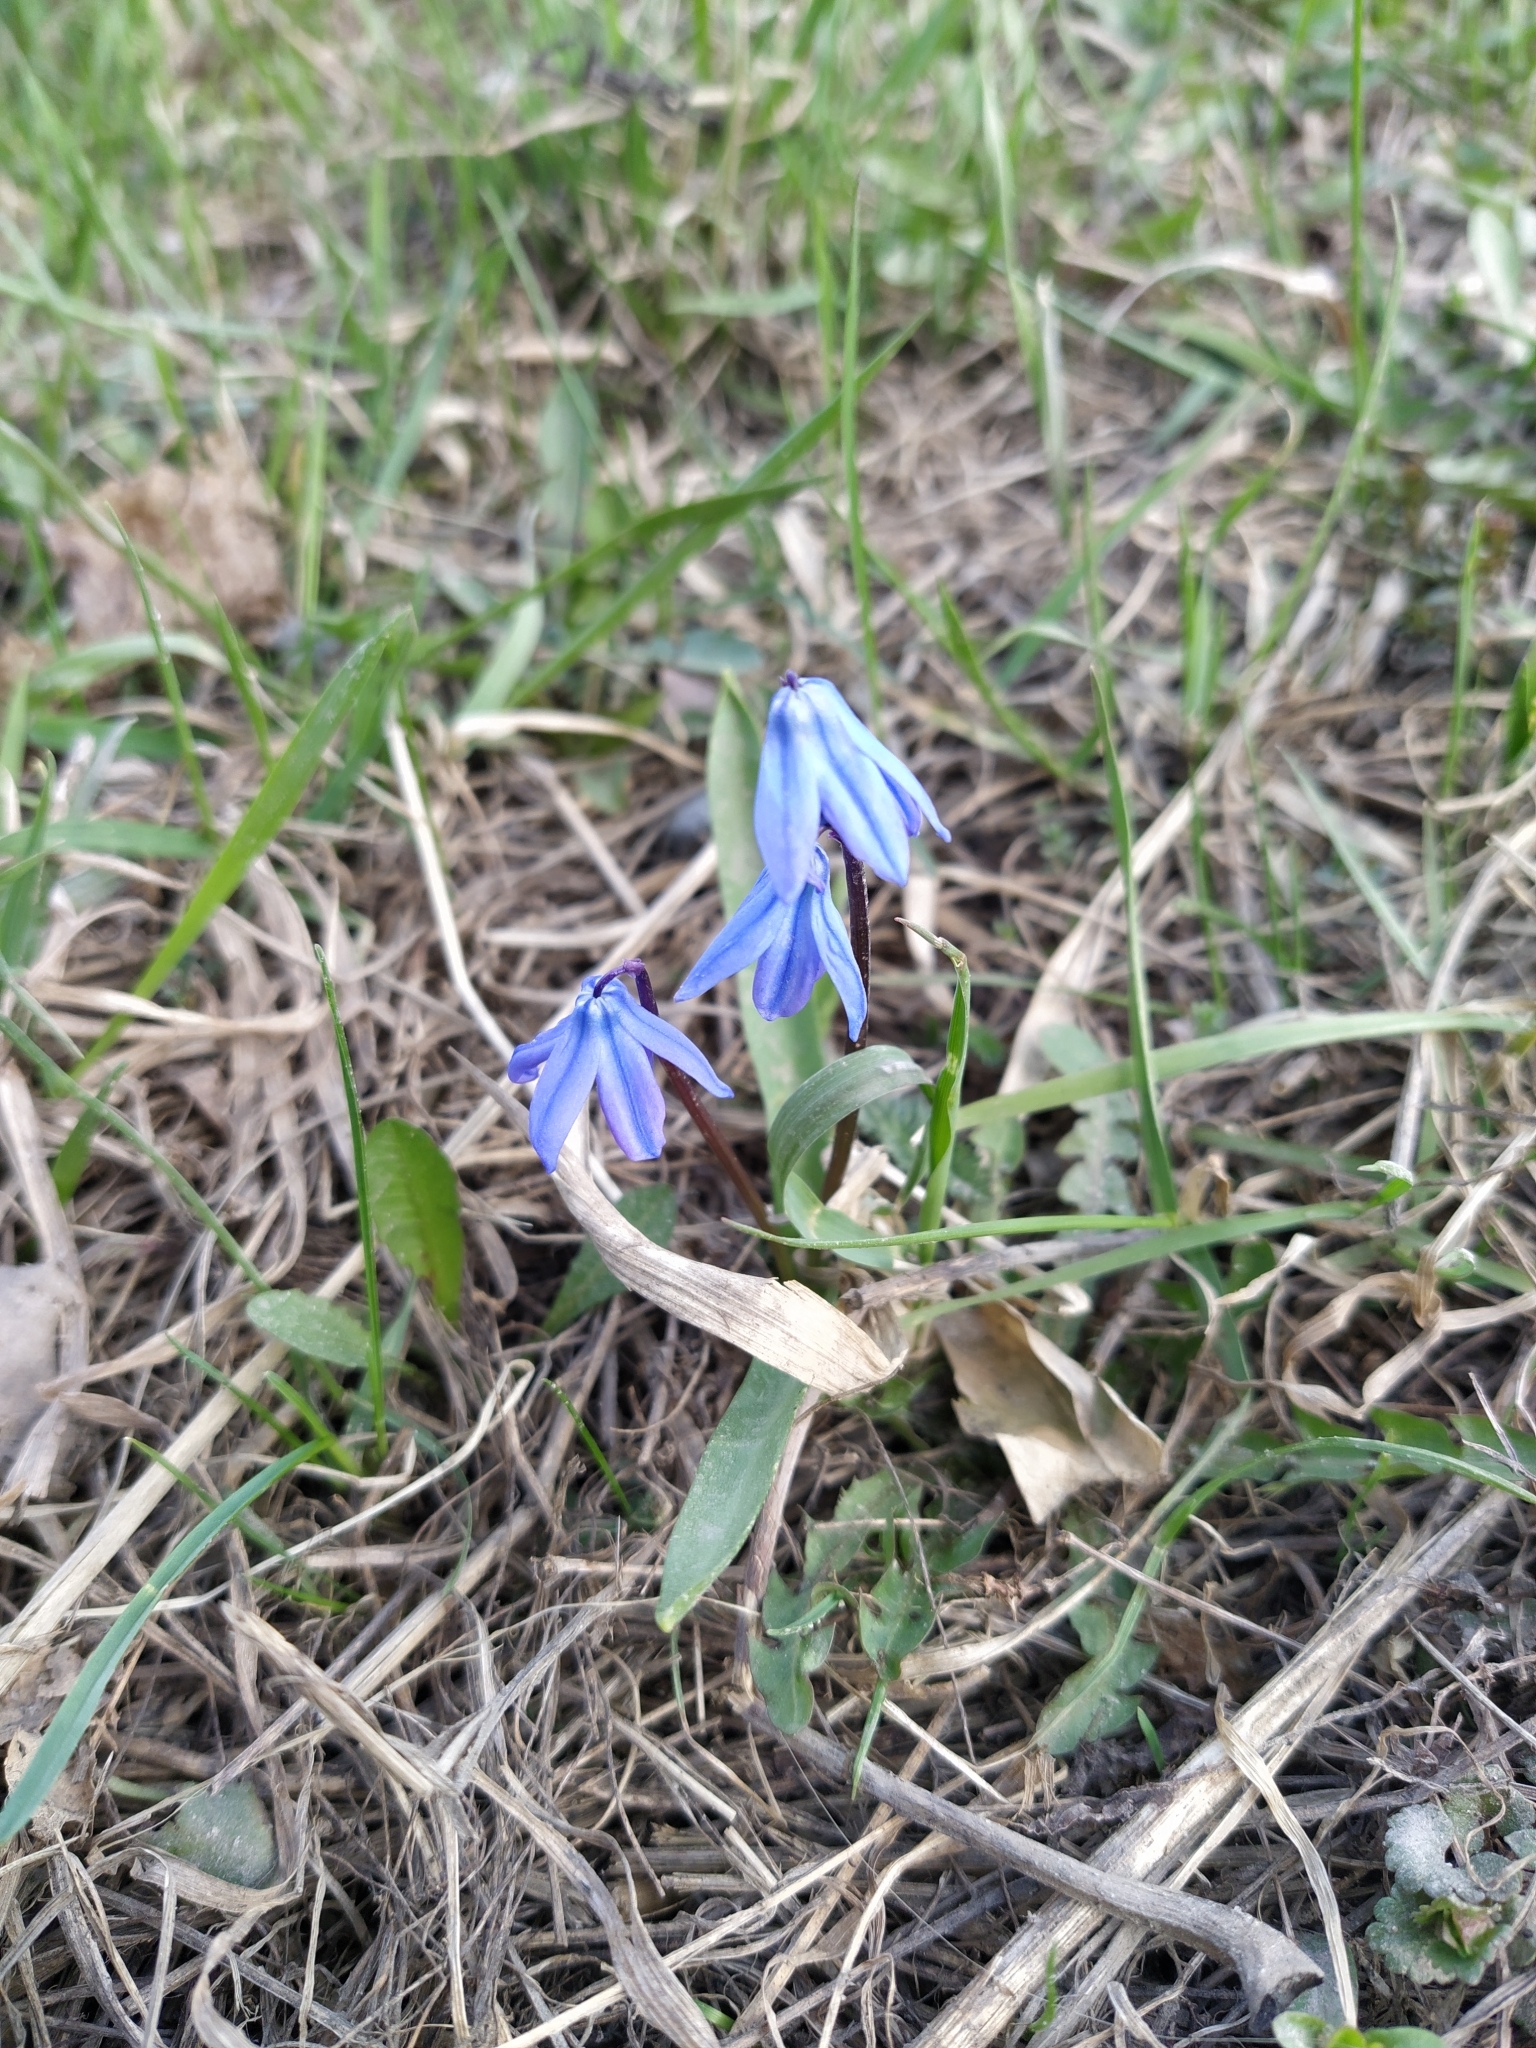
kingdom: Plantae
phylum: Tracheophyta
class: Liliopsida
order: Asparagales
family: Asparagaceae
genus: Scilla
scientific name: Scilla siberica
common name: Siberian squill
